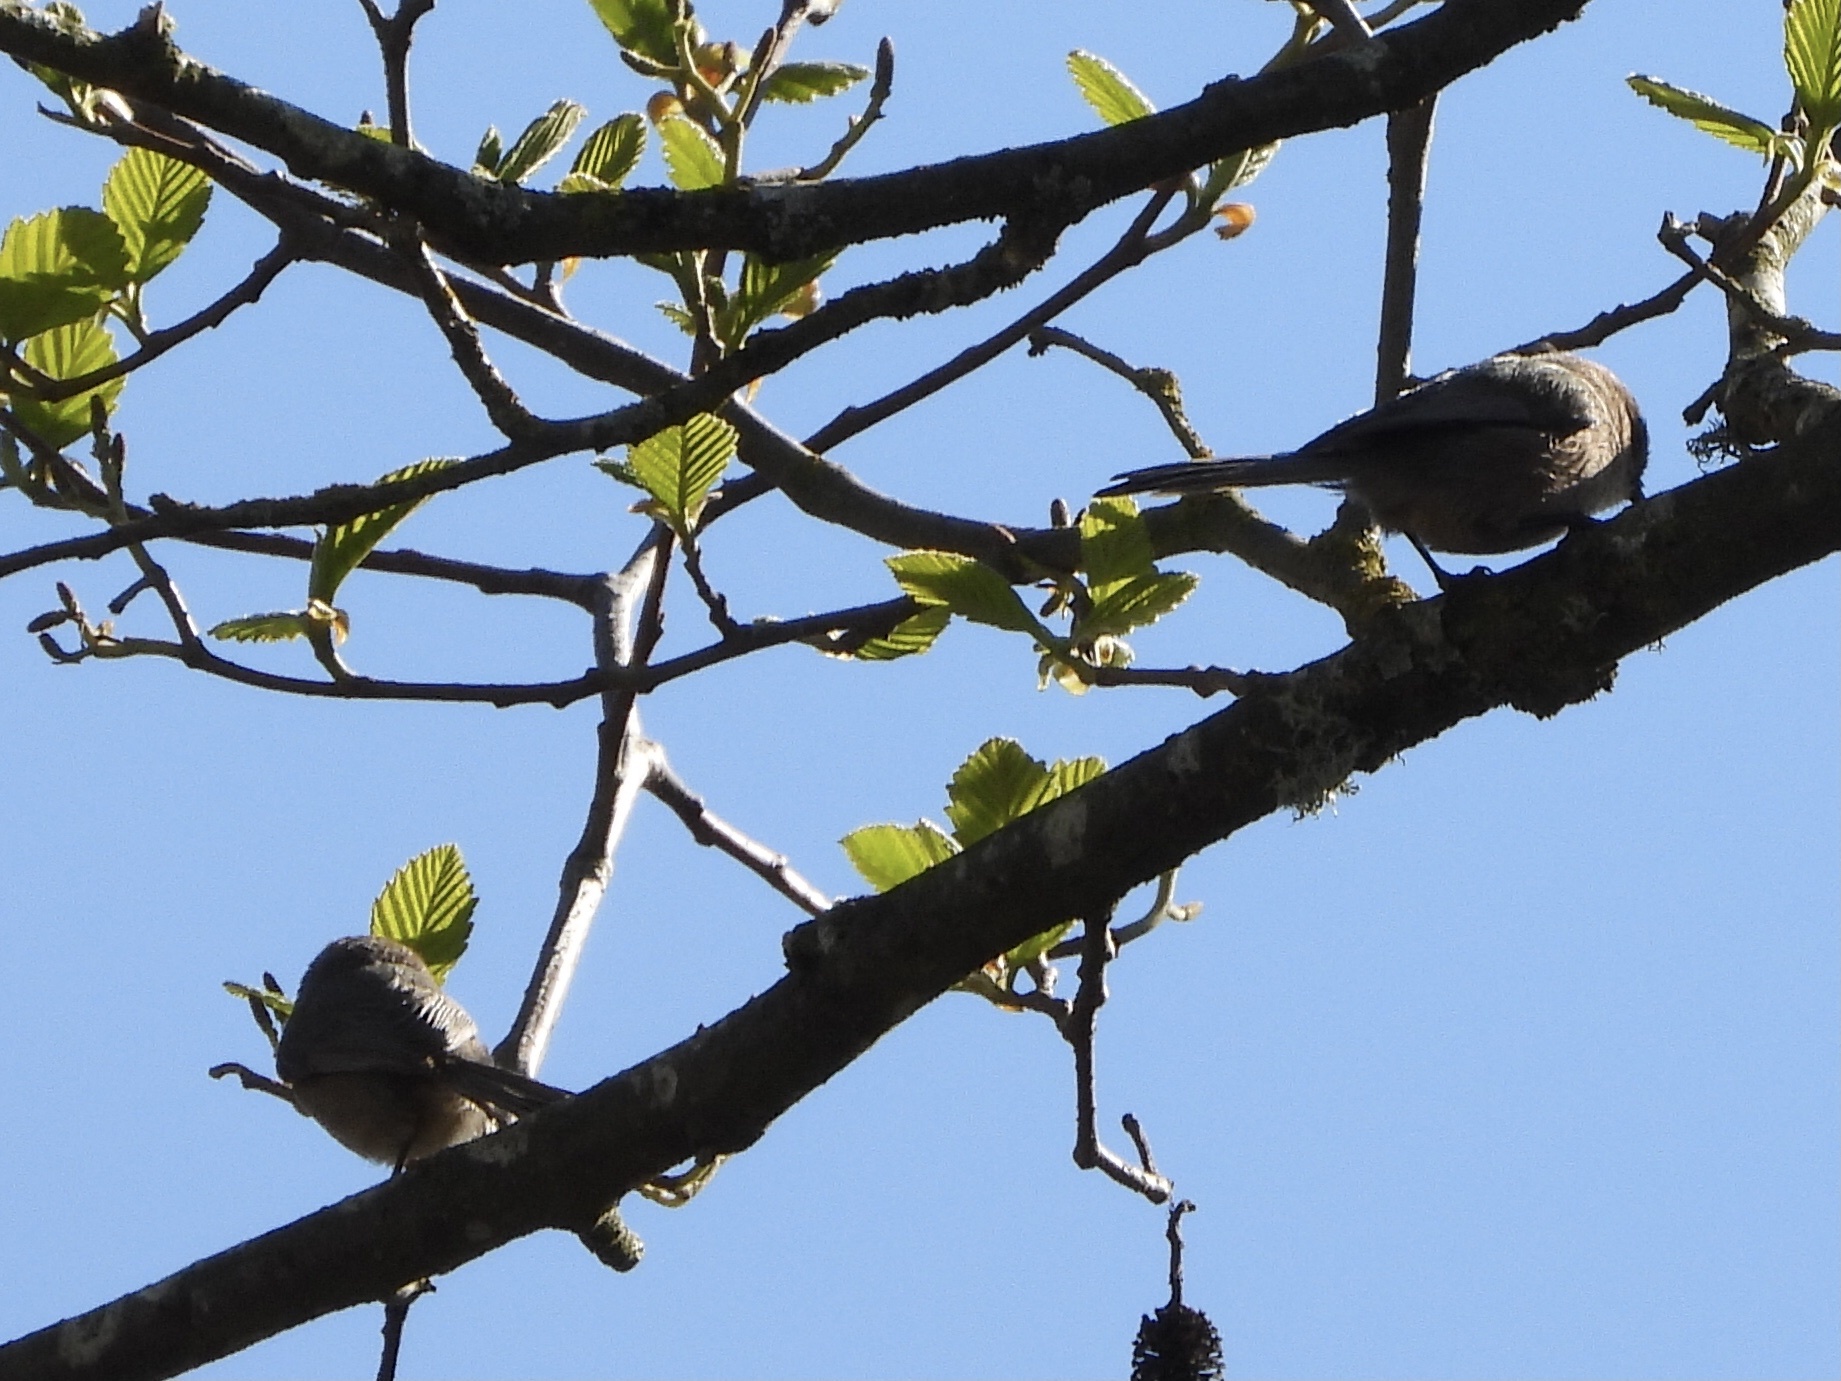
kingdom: Animalia
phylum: Chordata
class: Aves
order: Passeriformes
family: Aegithalidae
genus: Psaltriparus
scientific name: Psaltriparus minimus
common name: American bushtit
